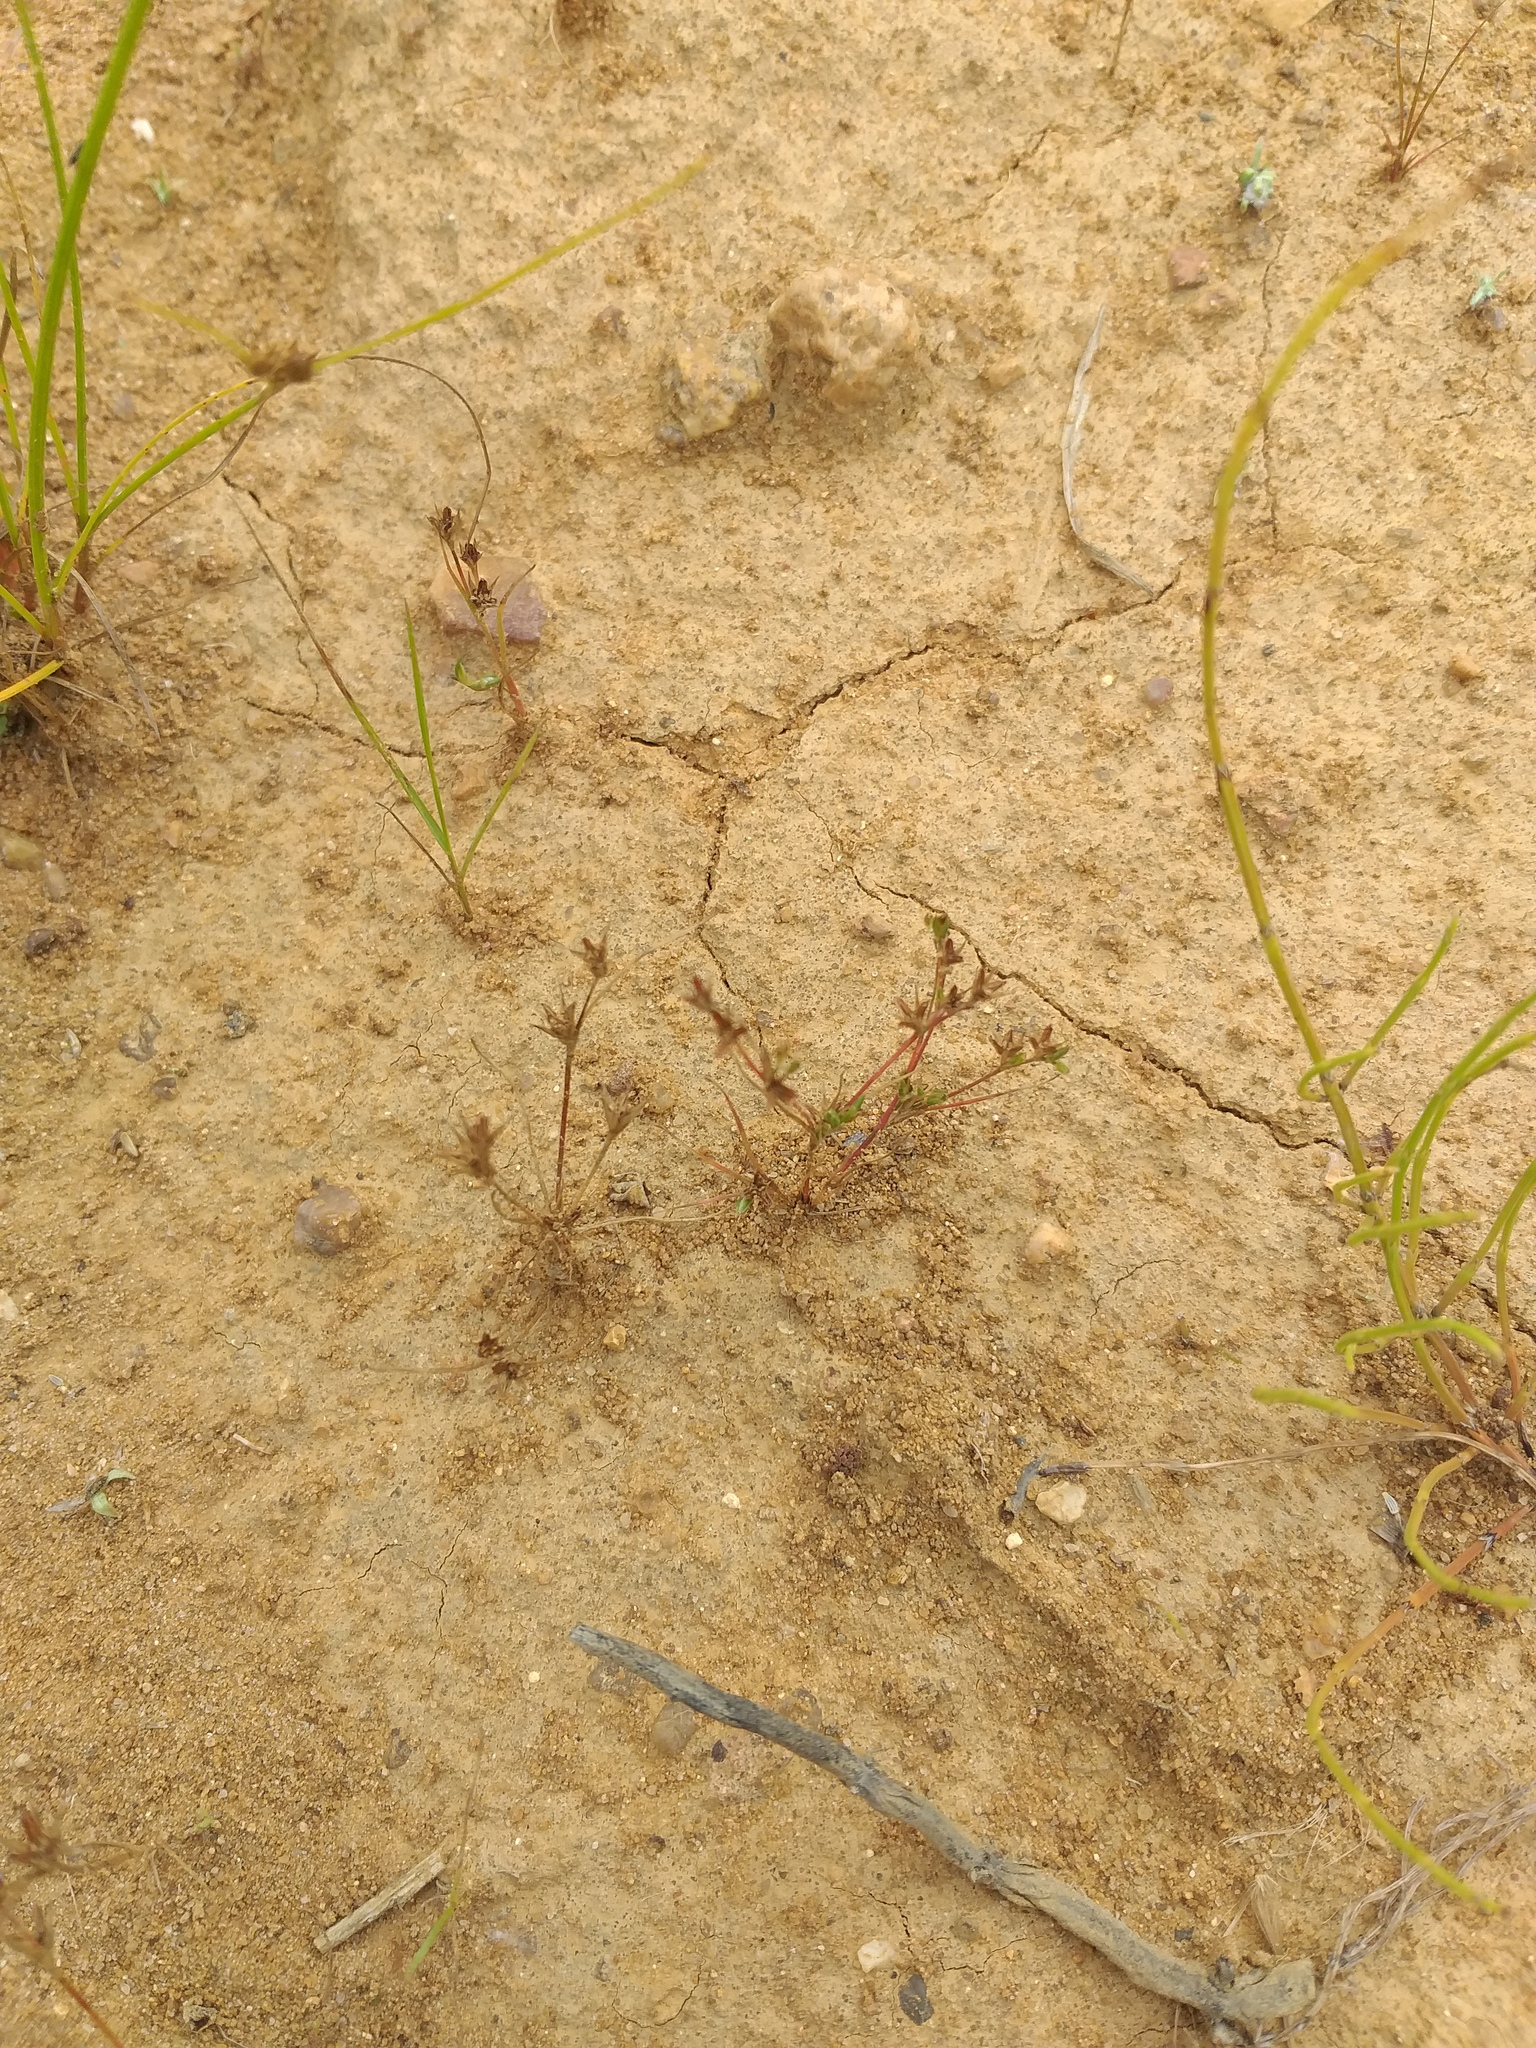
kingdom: Plantae
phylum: Tracheophyta
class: Liliopsida
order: Poales
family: Juncaceae
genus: Juncus
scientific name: Juncus bufonius
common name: Toad rush
